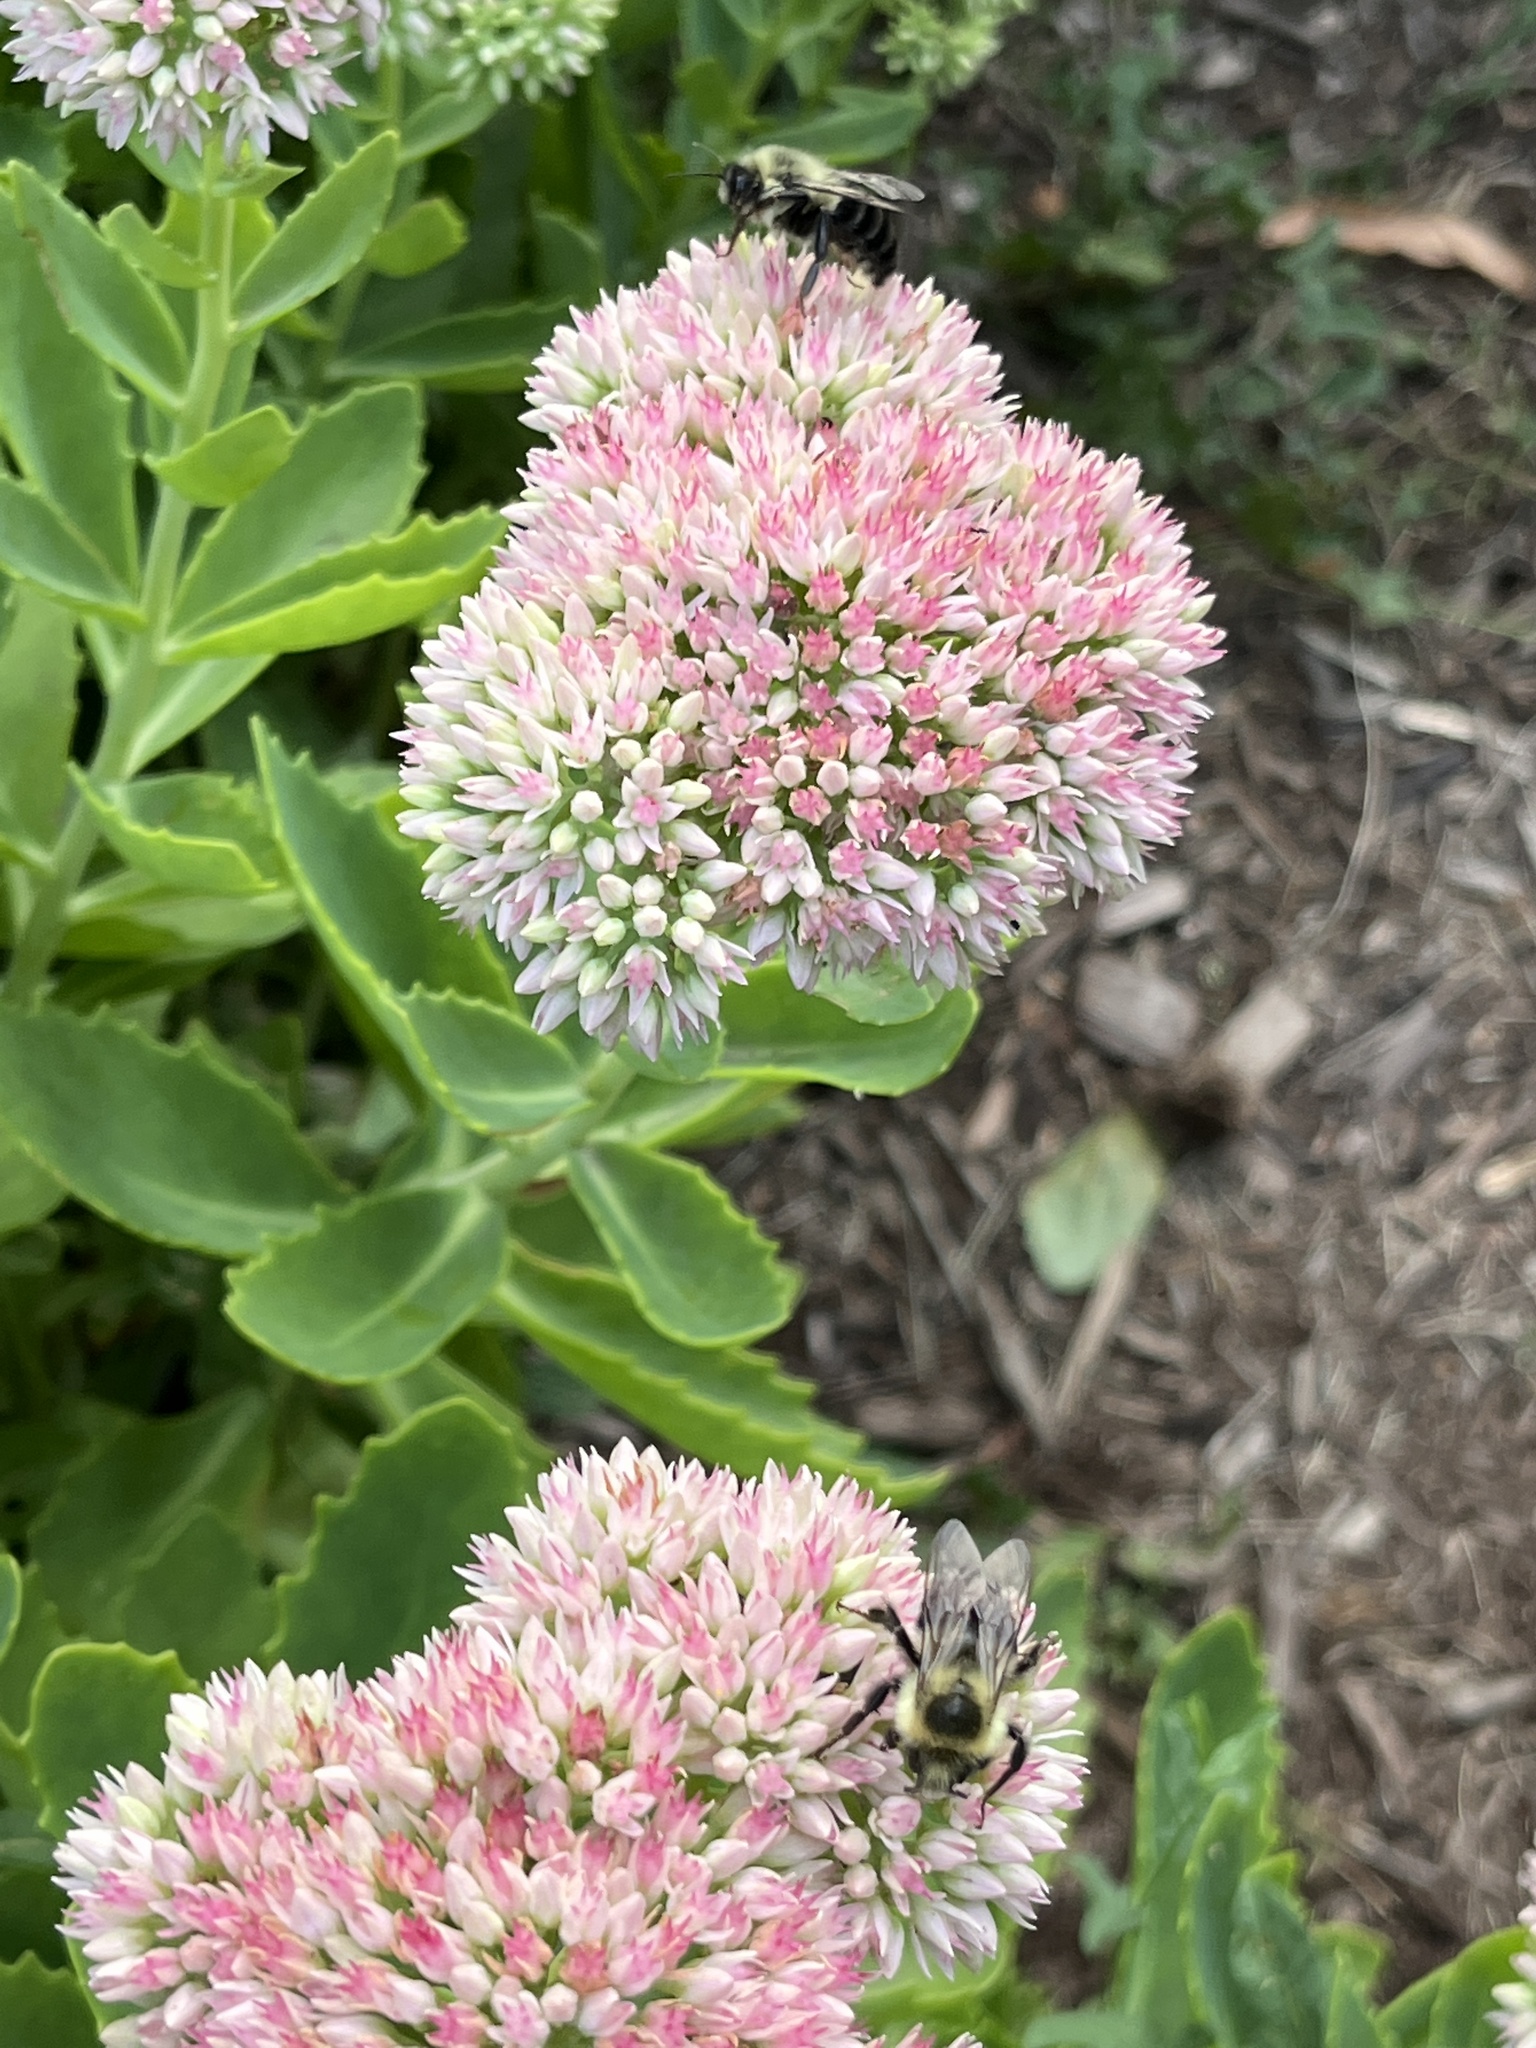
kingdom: Animalia
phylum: Arthropoda
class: Insecta
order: Hymenoptera
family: Apidae
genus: Bombus
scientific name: Bombus impatiens
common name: Common eastern bumble bee
